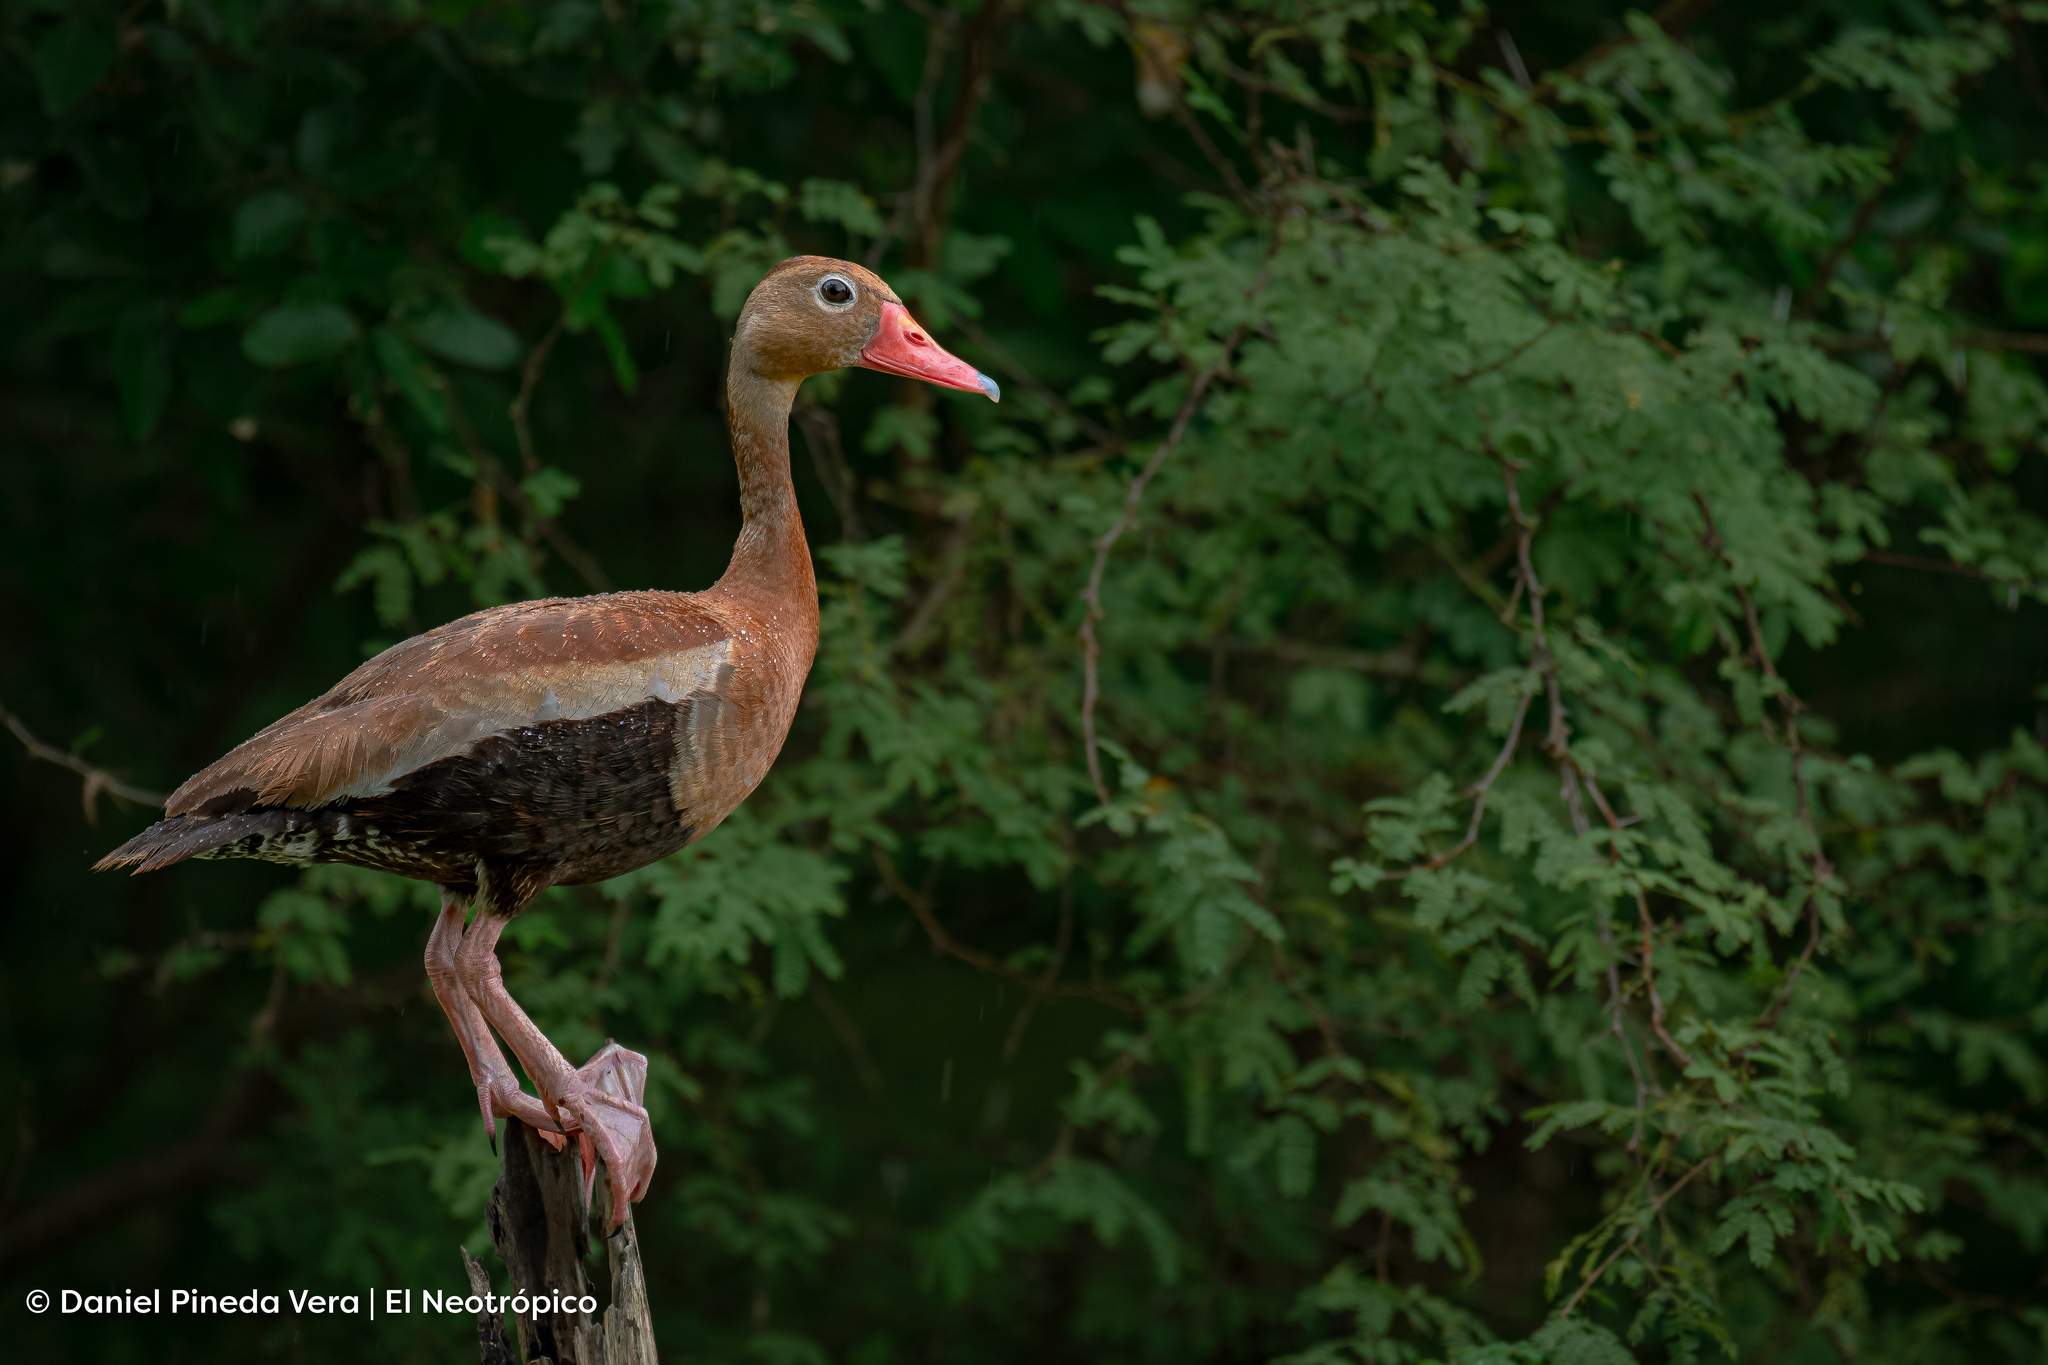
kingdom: Animalia
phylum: Chordata
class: Aves
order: Anseriformes
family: Anatidae
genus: Dendrocygna
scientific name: Dendrocygna autumnalis
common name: Black-bellied whistling duck
